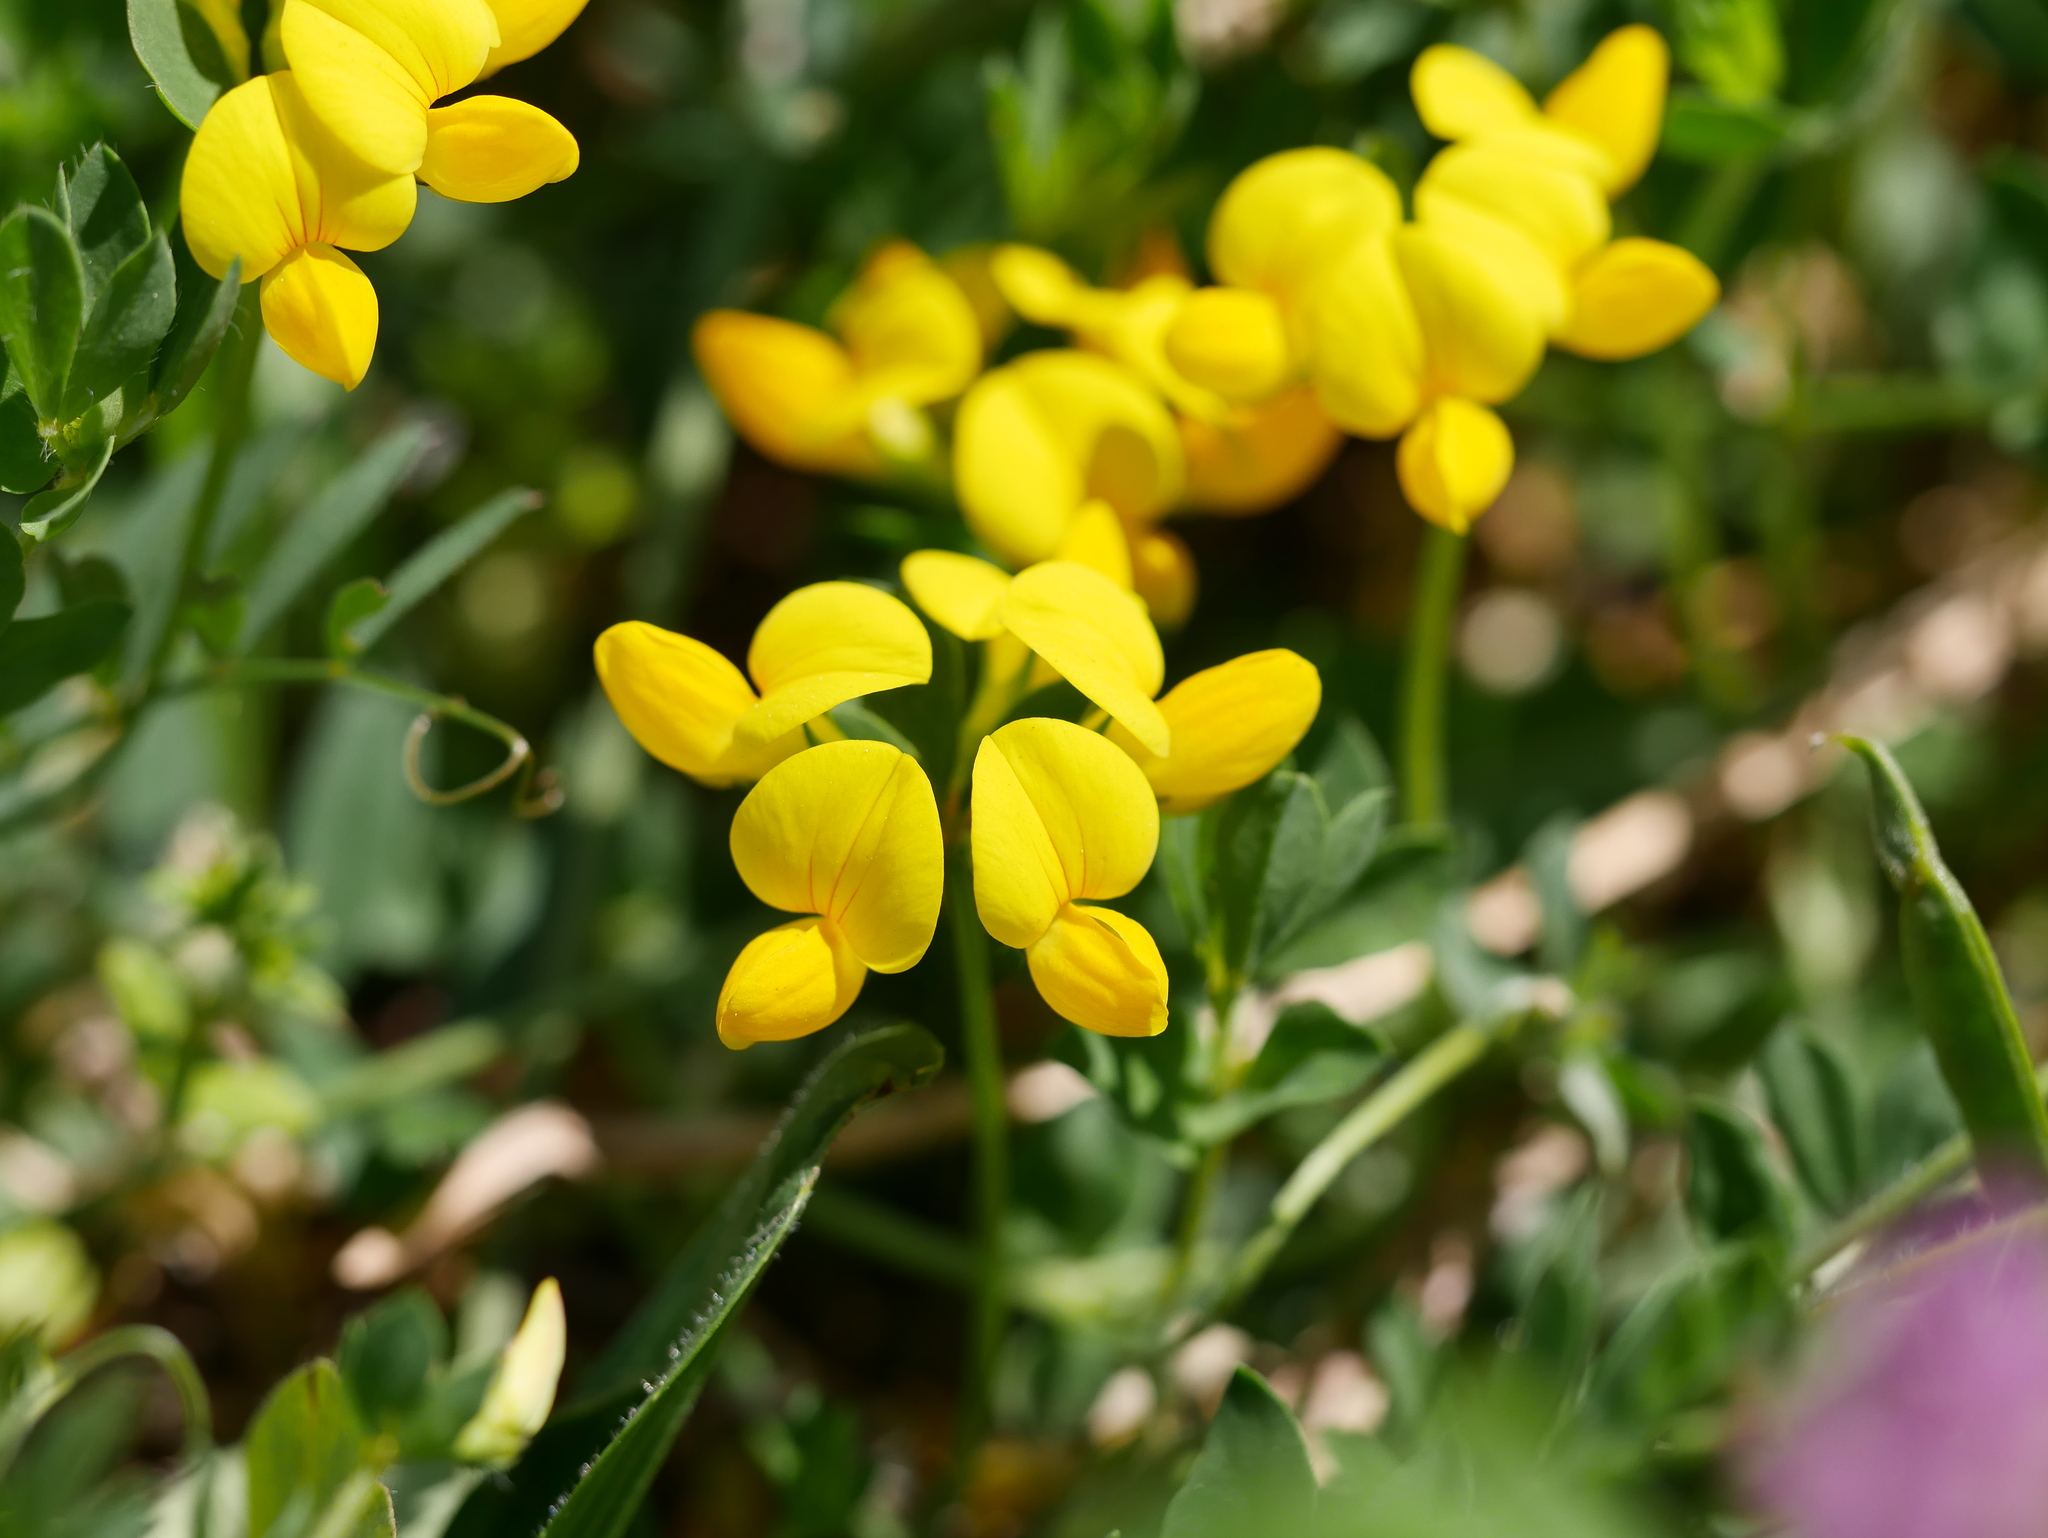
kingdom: Plantae
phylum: Tracheophyta
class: Magnoliopsida
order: Fabales
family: Fabaceae
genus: Lotus
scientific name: Lotus corniculatus
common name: Common bird's-foot-trefoil
